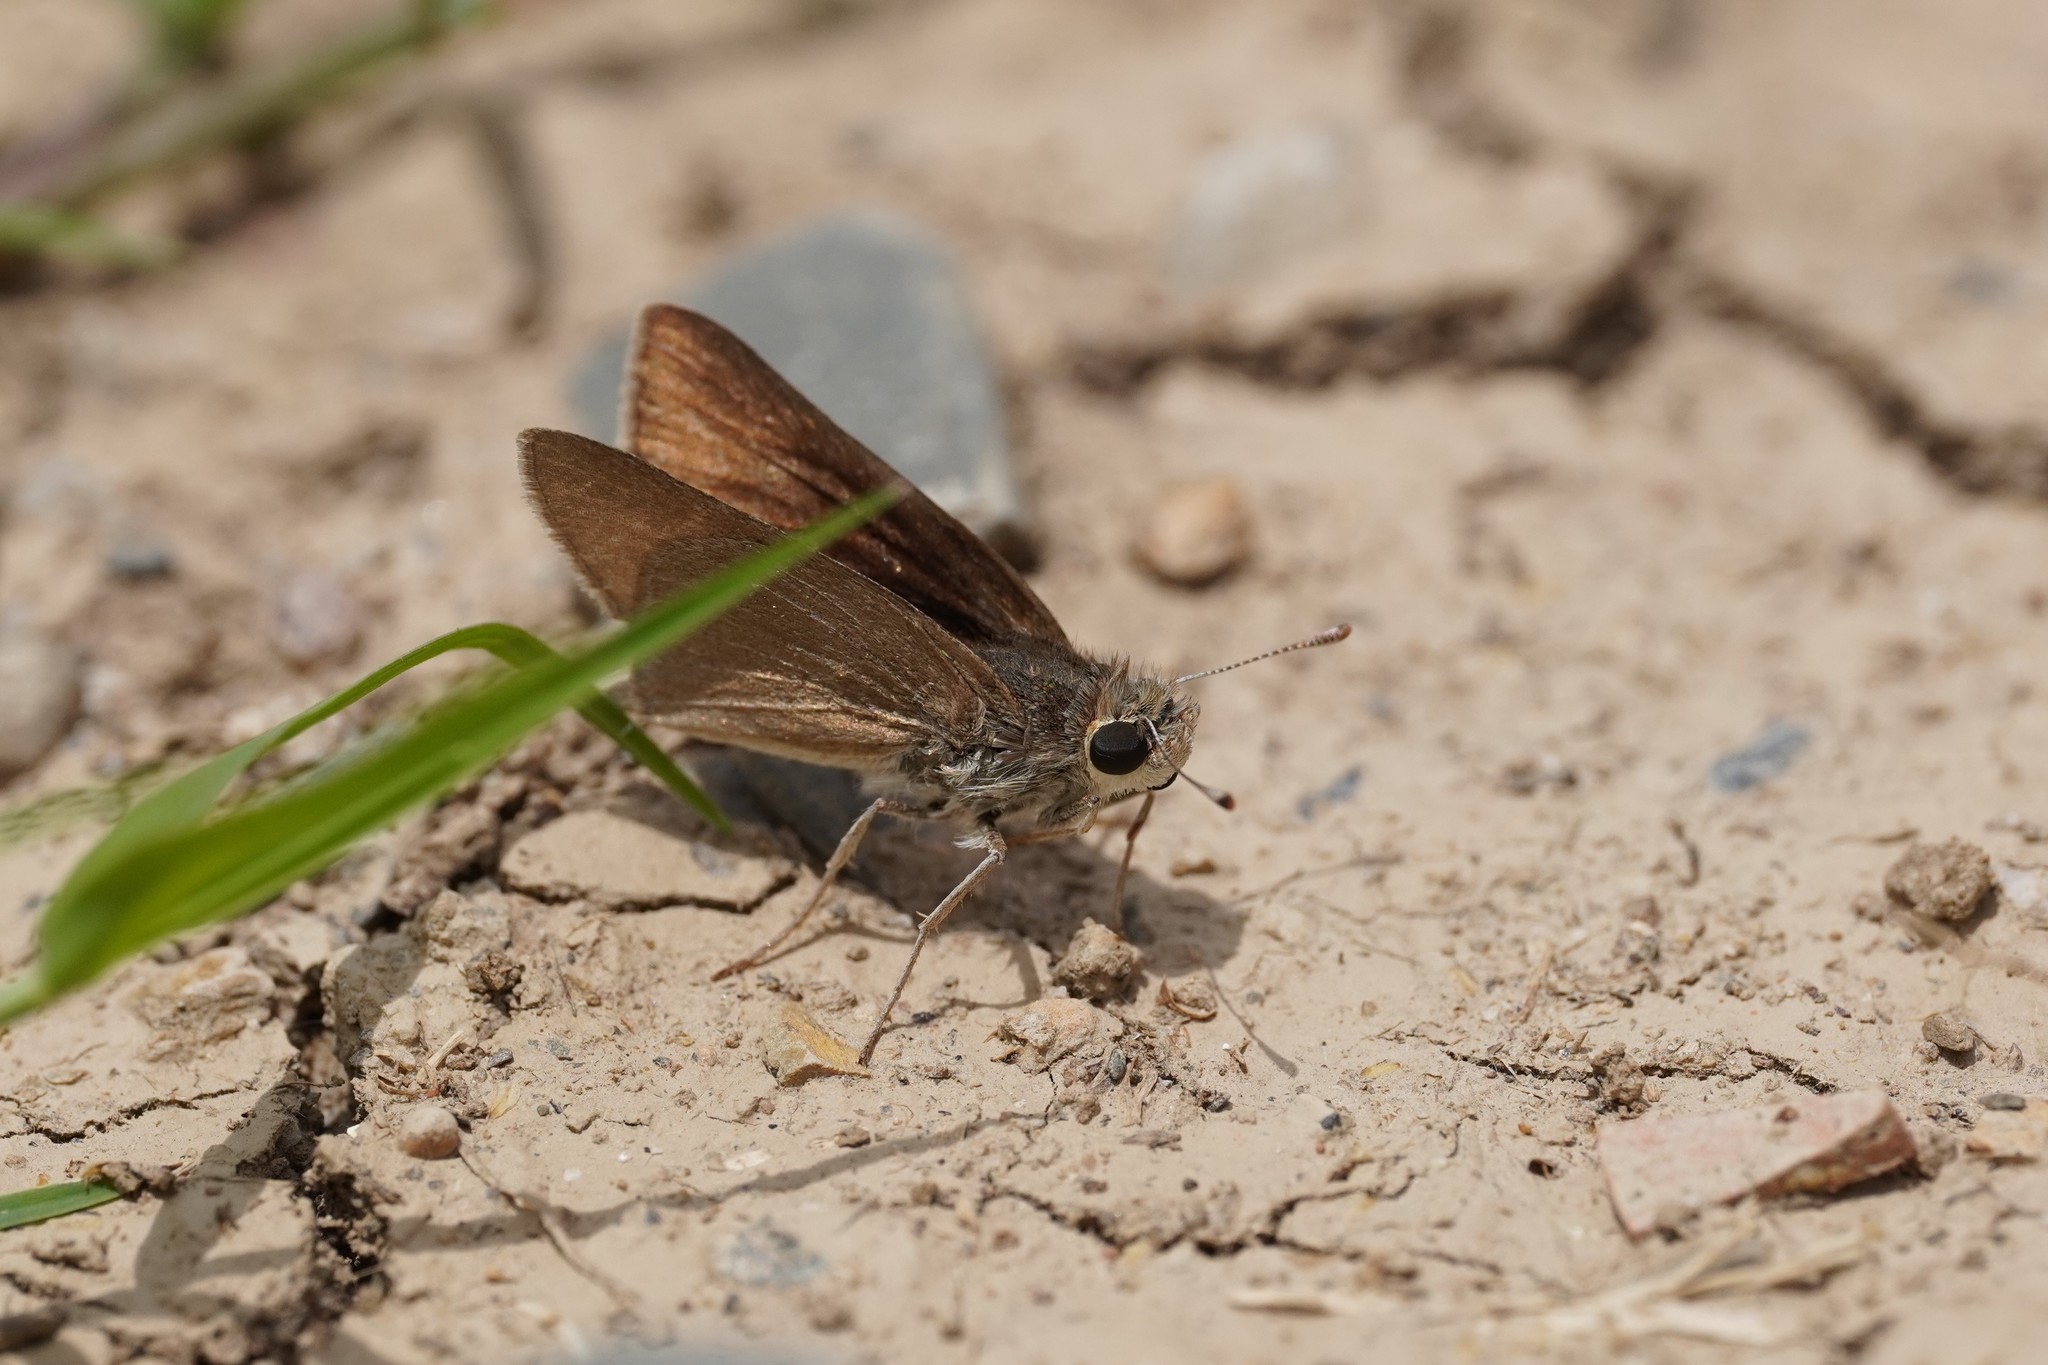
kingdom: Animalia
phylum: Arthropoda
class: Insecta
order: Lepidoptera
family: Hesperiidae
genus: Gegenes
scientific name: Gegenes nostrodamus
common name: Mediterranean skipper
